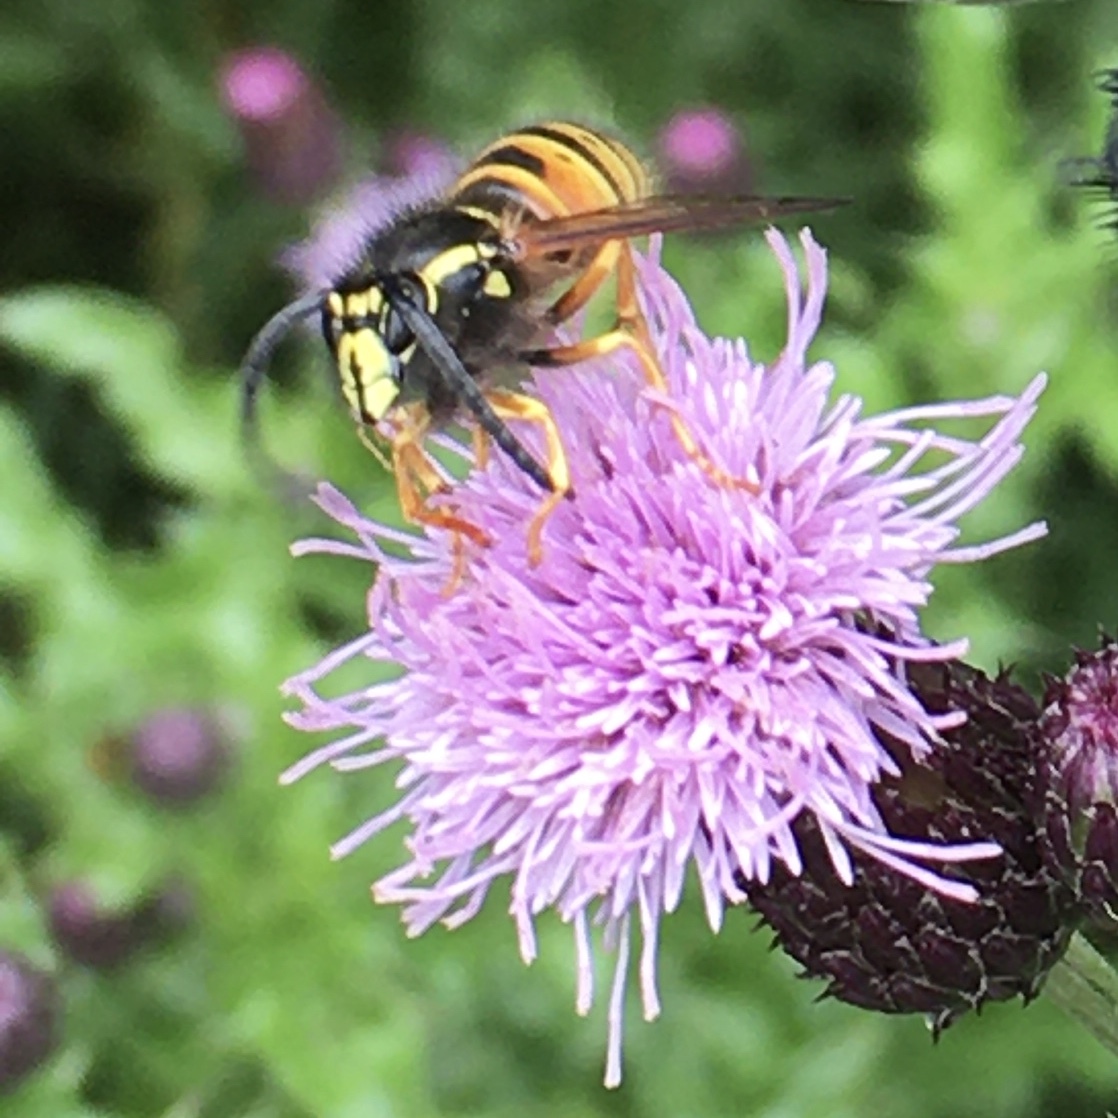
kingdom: Animalia
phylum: Arthropoda
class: Insecta
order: Hymenoptera
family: Vespidae
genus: Dolichovespula
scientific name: Dolichovespula norwegica
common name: Norwegian wasp
